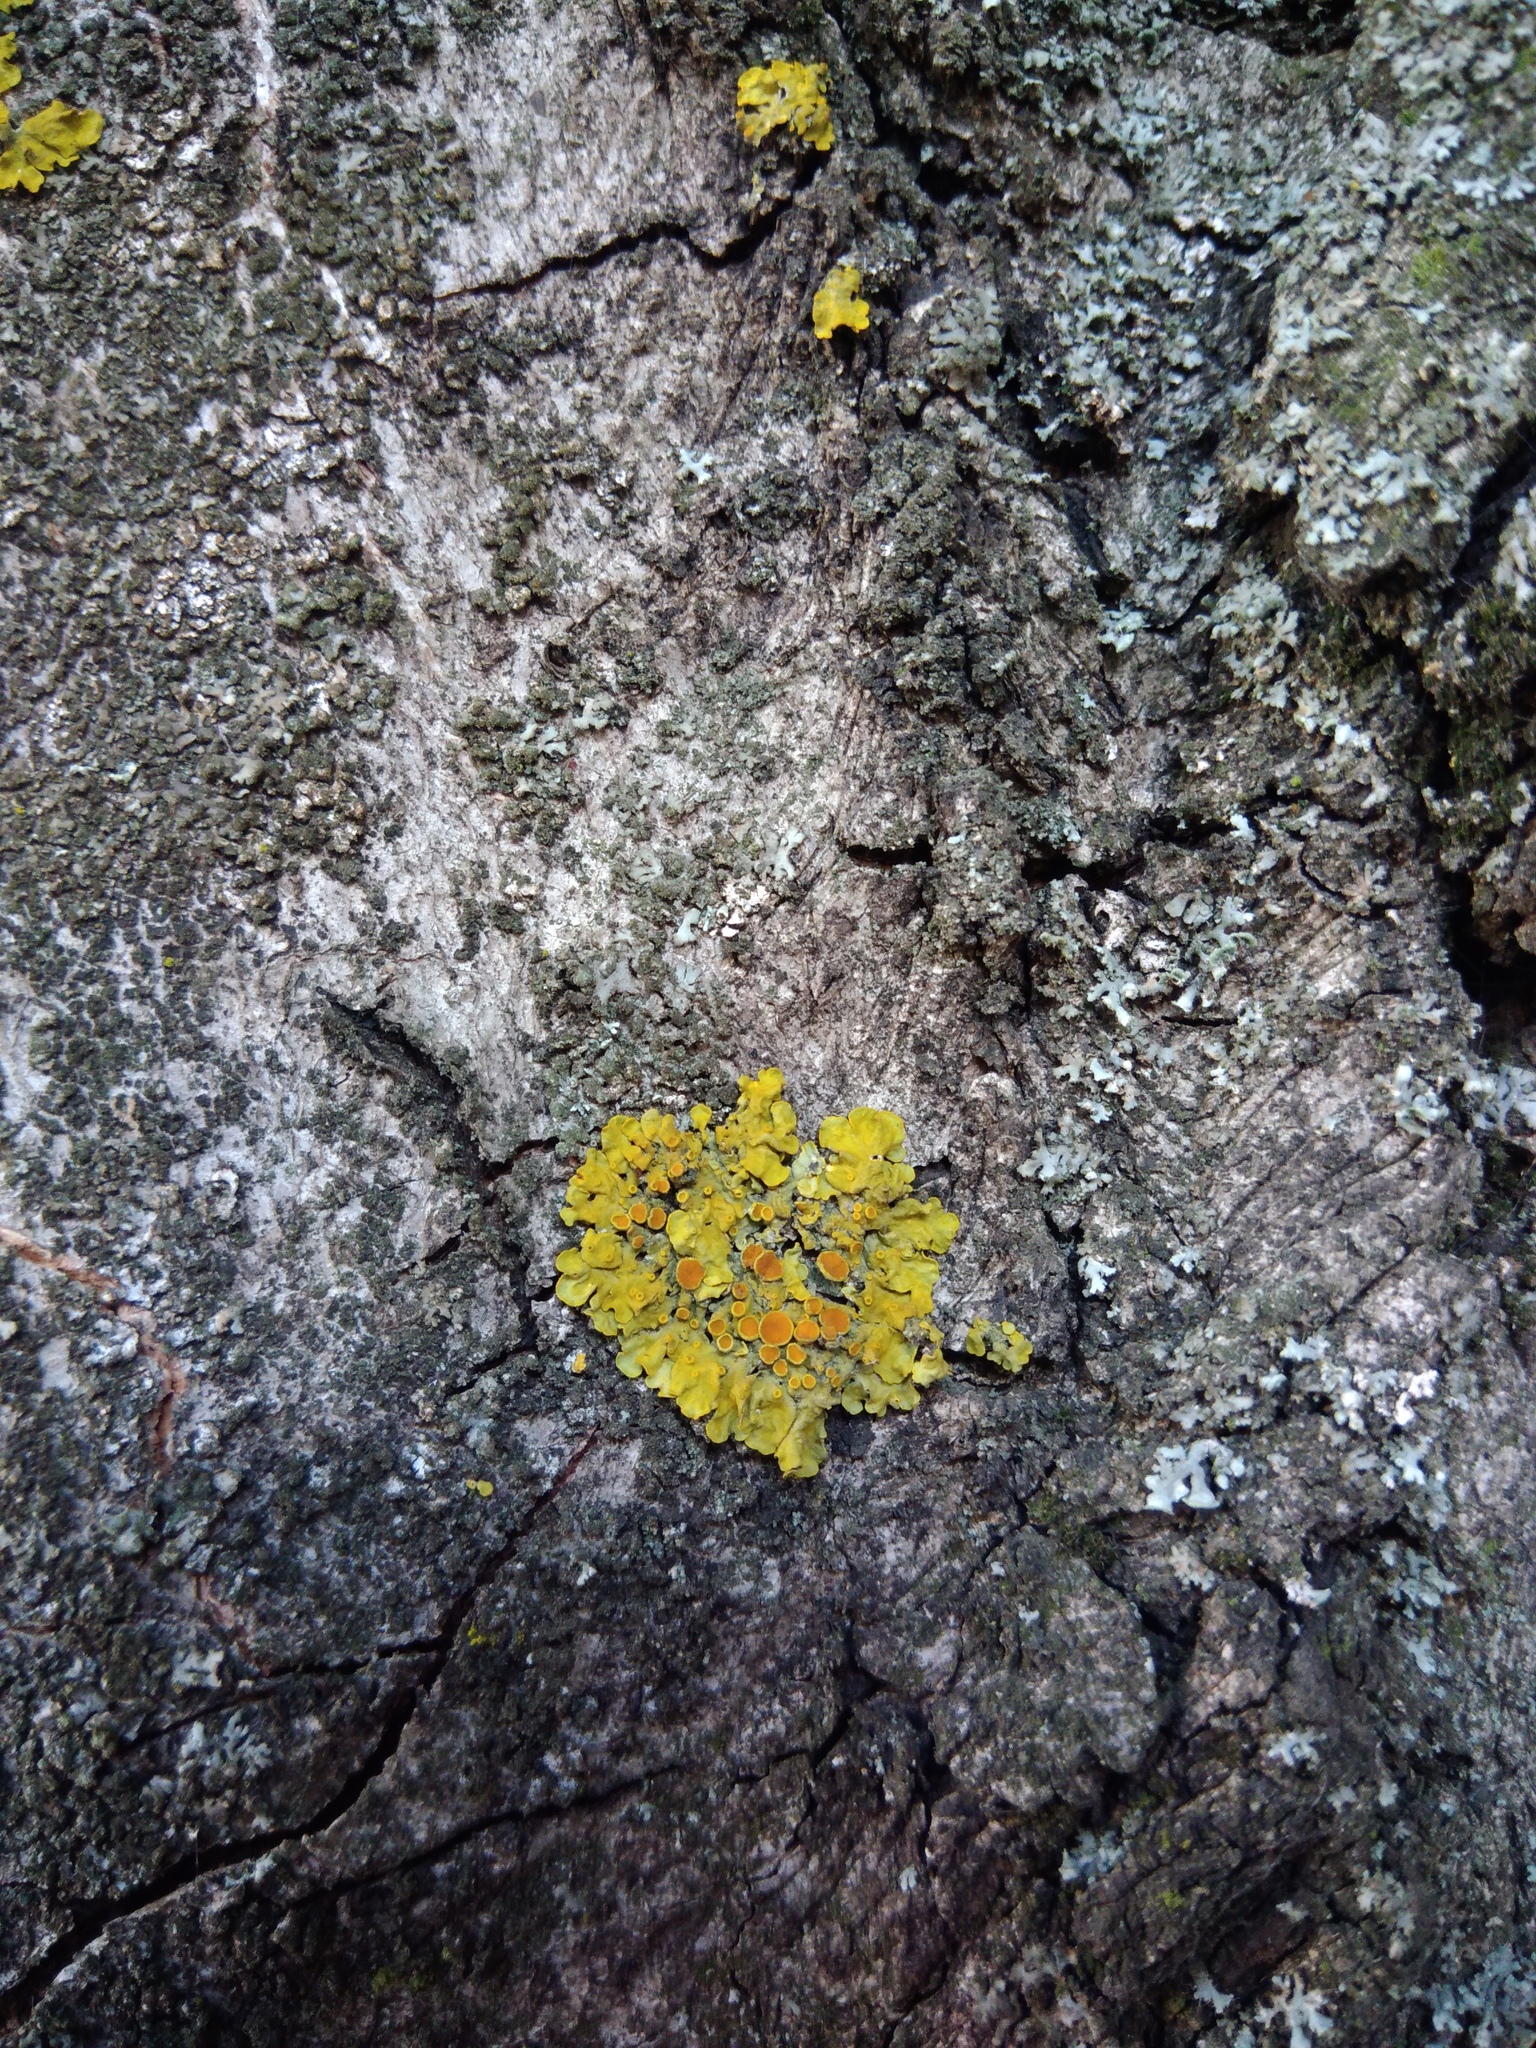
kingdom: Fungi
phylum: Ascomycota
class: Lecanoromycetes
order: Teloschistales
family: Teloschistaceae
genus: Xanthoria
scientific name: Xanthoria parietina
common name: Common orange lichen
